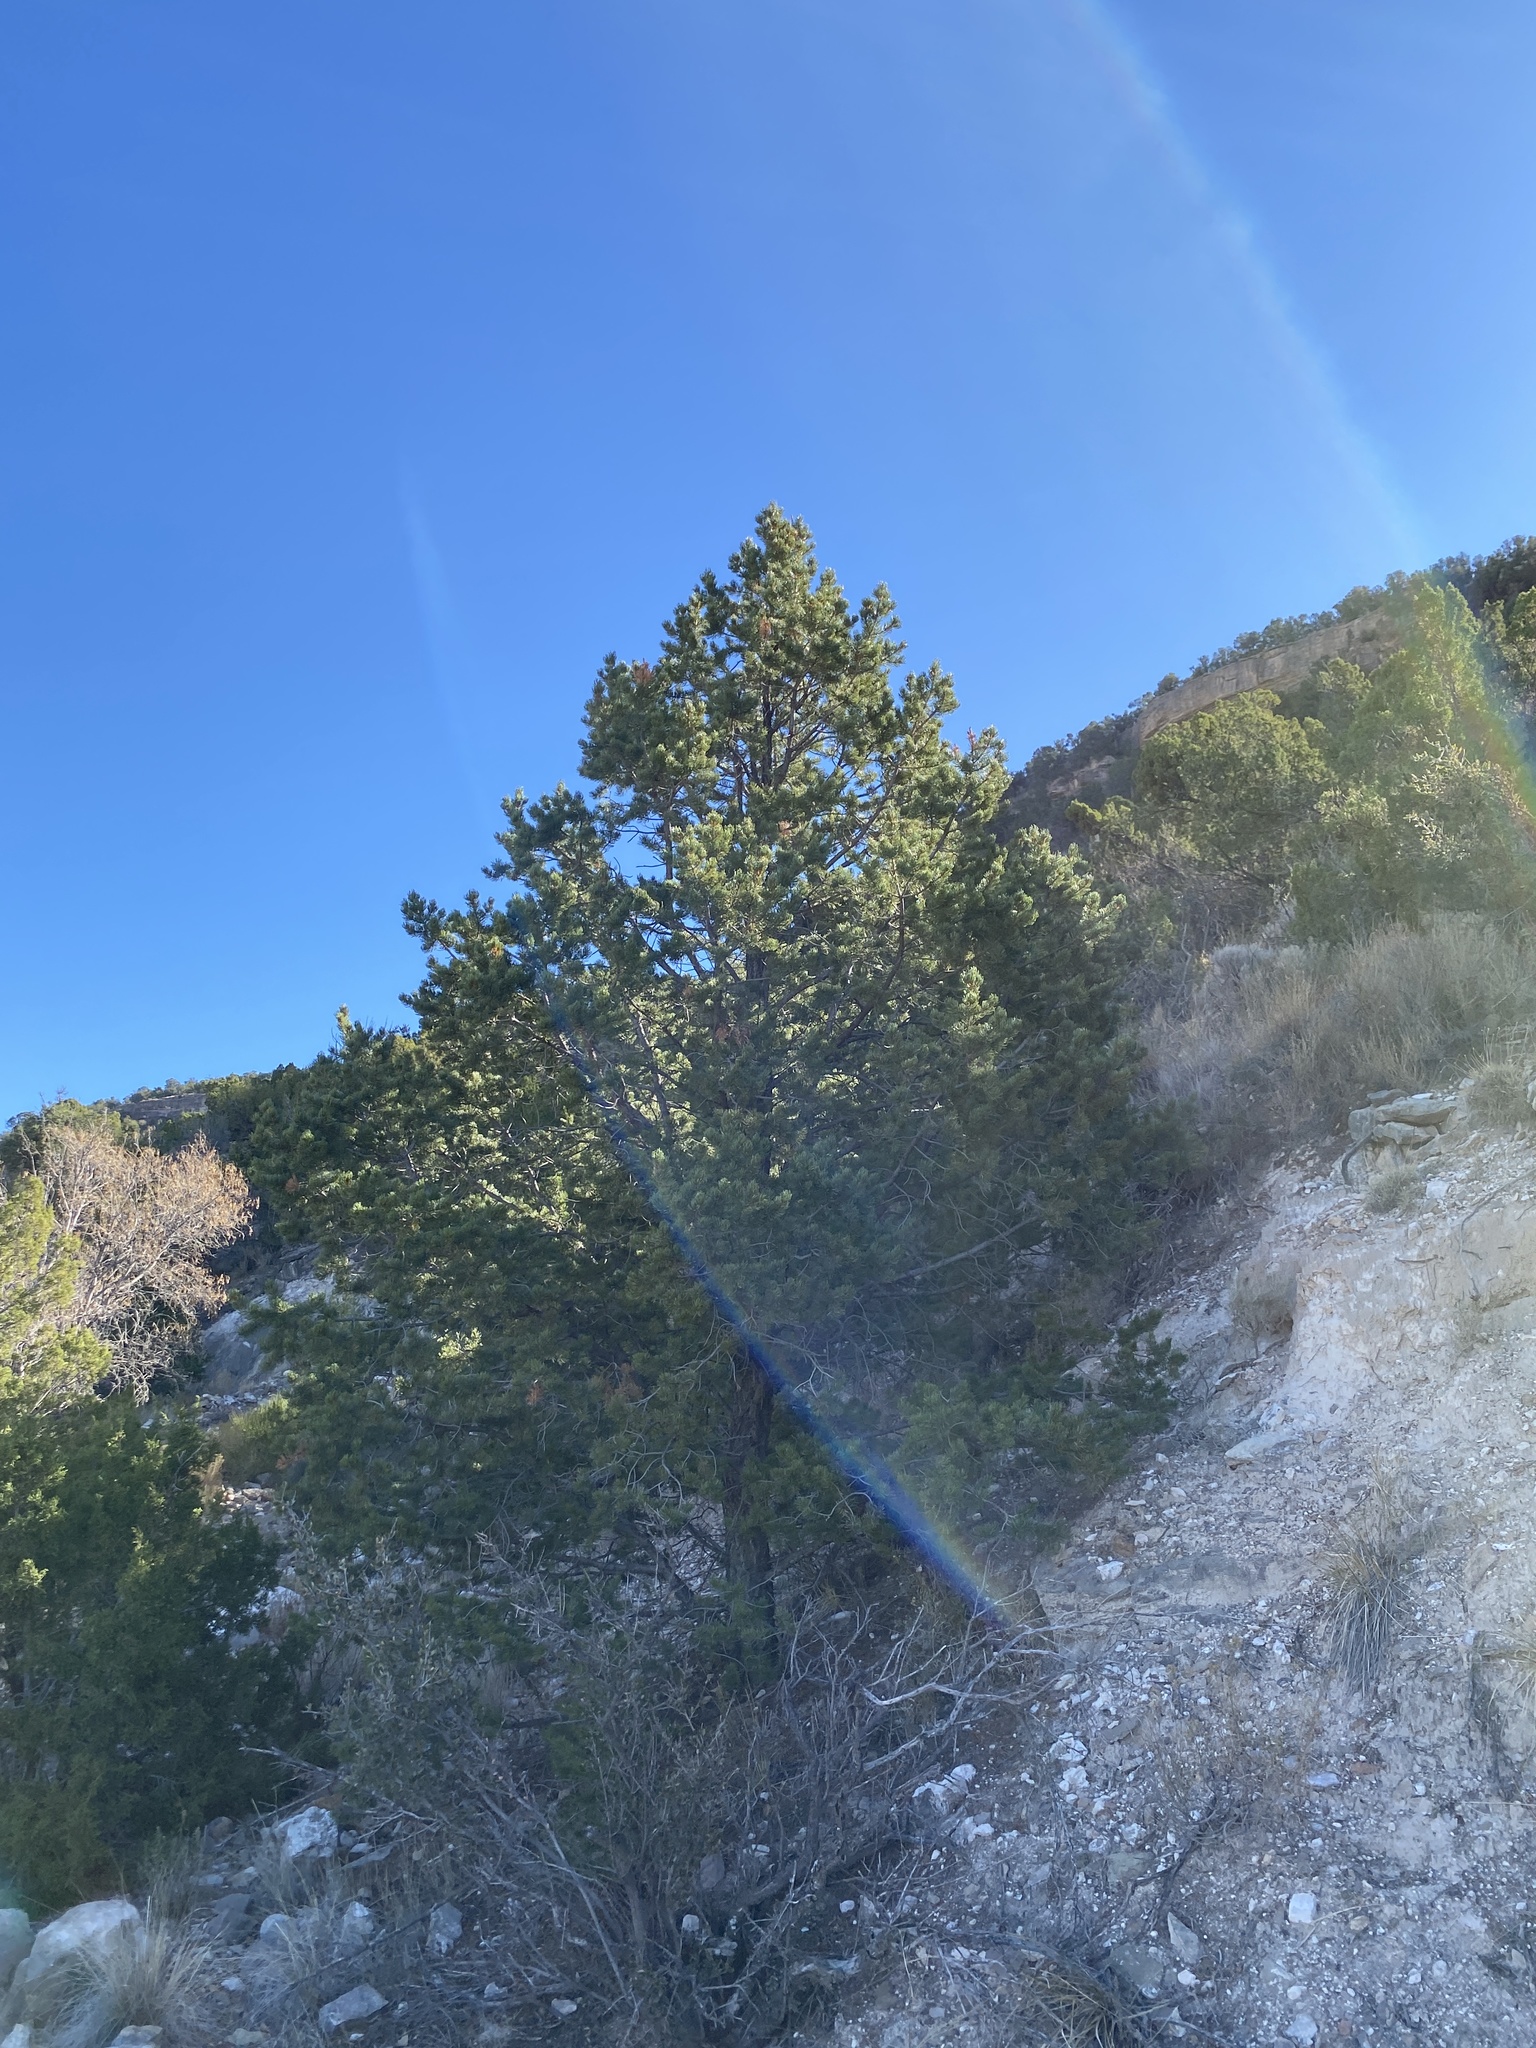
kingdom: Plantae
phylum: Tracheophyta
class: Pinopsida
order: Pinales
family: Pinaceae
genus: Pinus
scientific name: Pinus edulis
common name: Colorado pinyon
